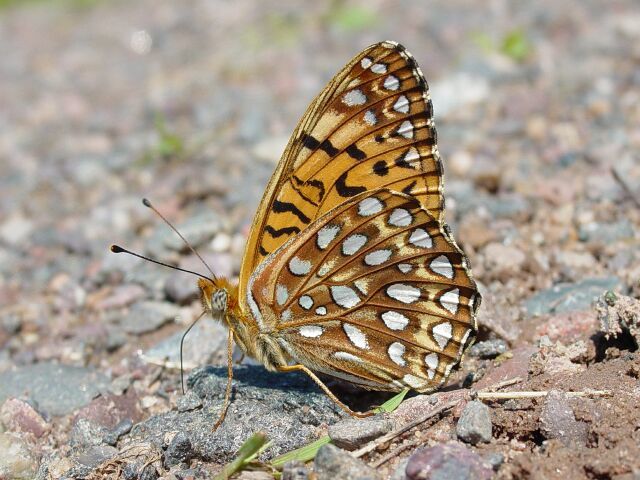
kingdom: Animalia
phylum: Arthropoda
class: Insecta
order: Lepidoptera
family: Nymphalidae
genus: Speyeria
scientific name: Speyeria atlantis
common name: Atlantis fritillary
